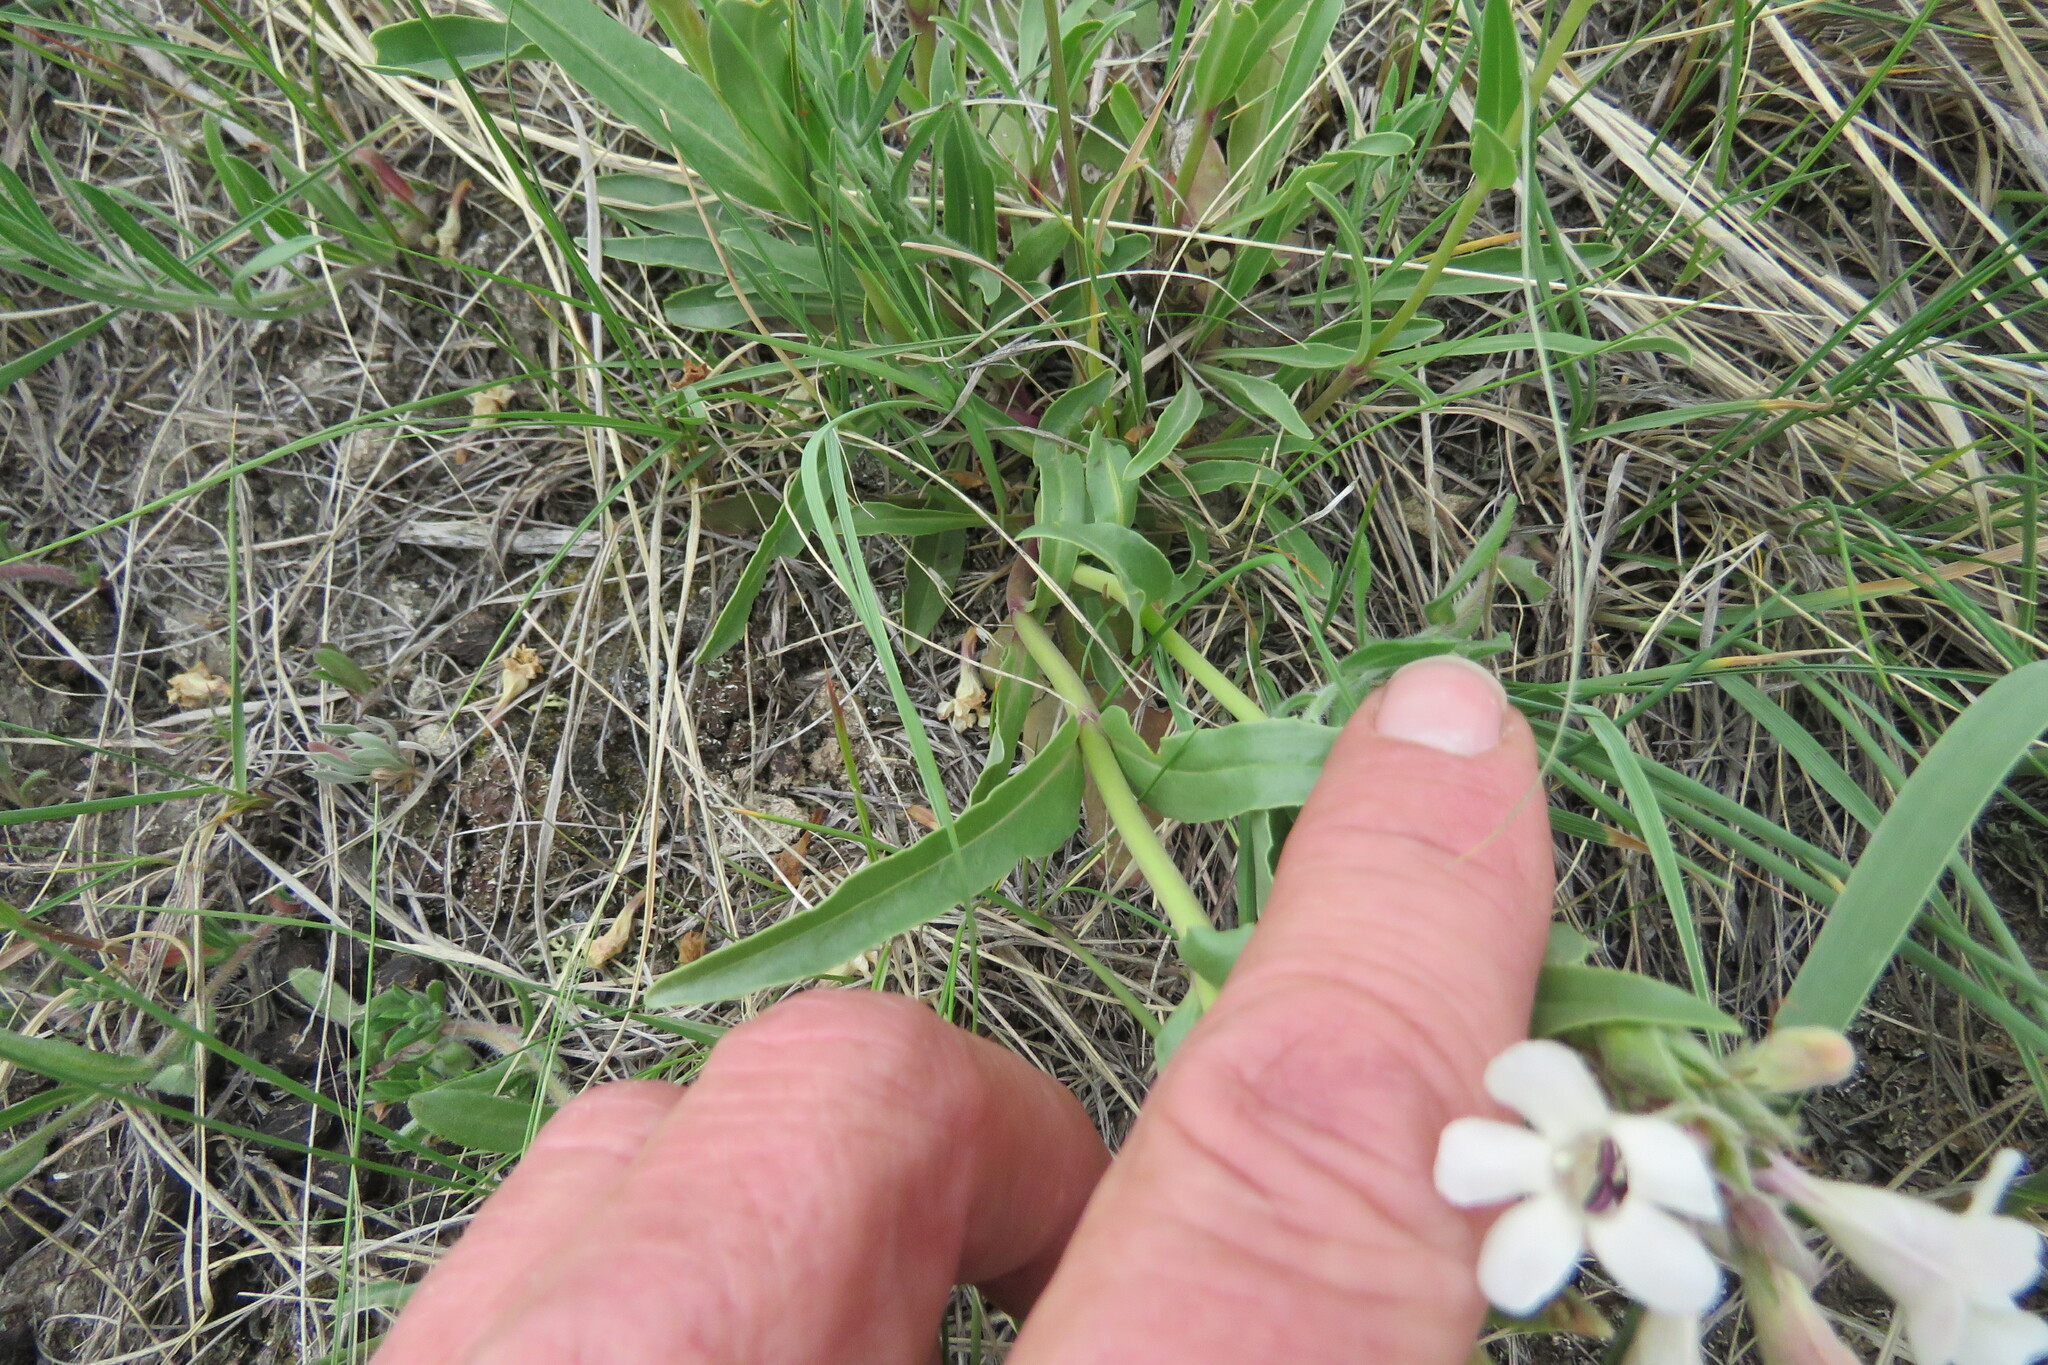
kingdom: Plantae
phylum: Tracheophyta
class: Magnoliopsida
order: Lamiales
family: Plantaginaceae
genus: Penstemon
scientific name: Penstemon albidus
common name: White beardtongue
